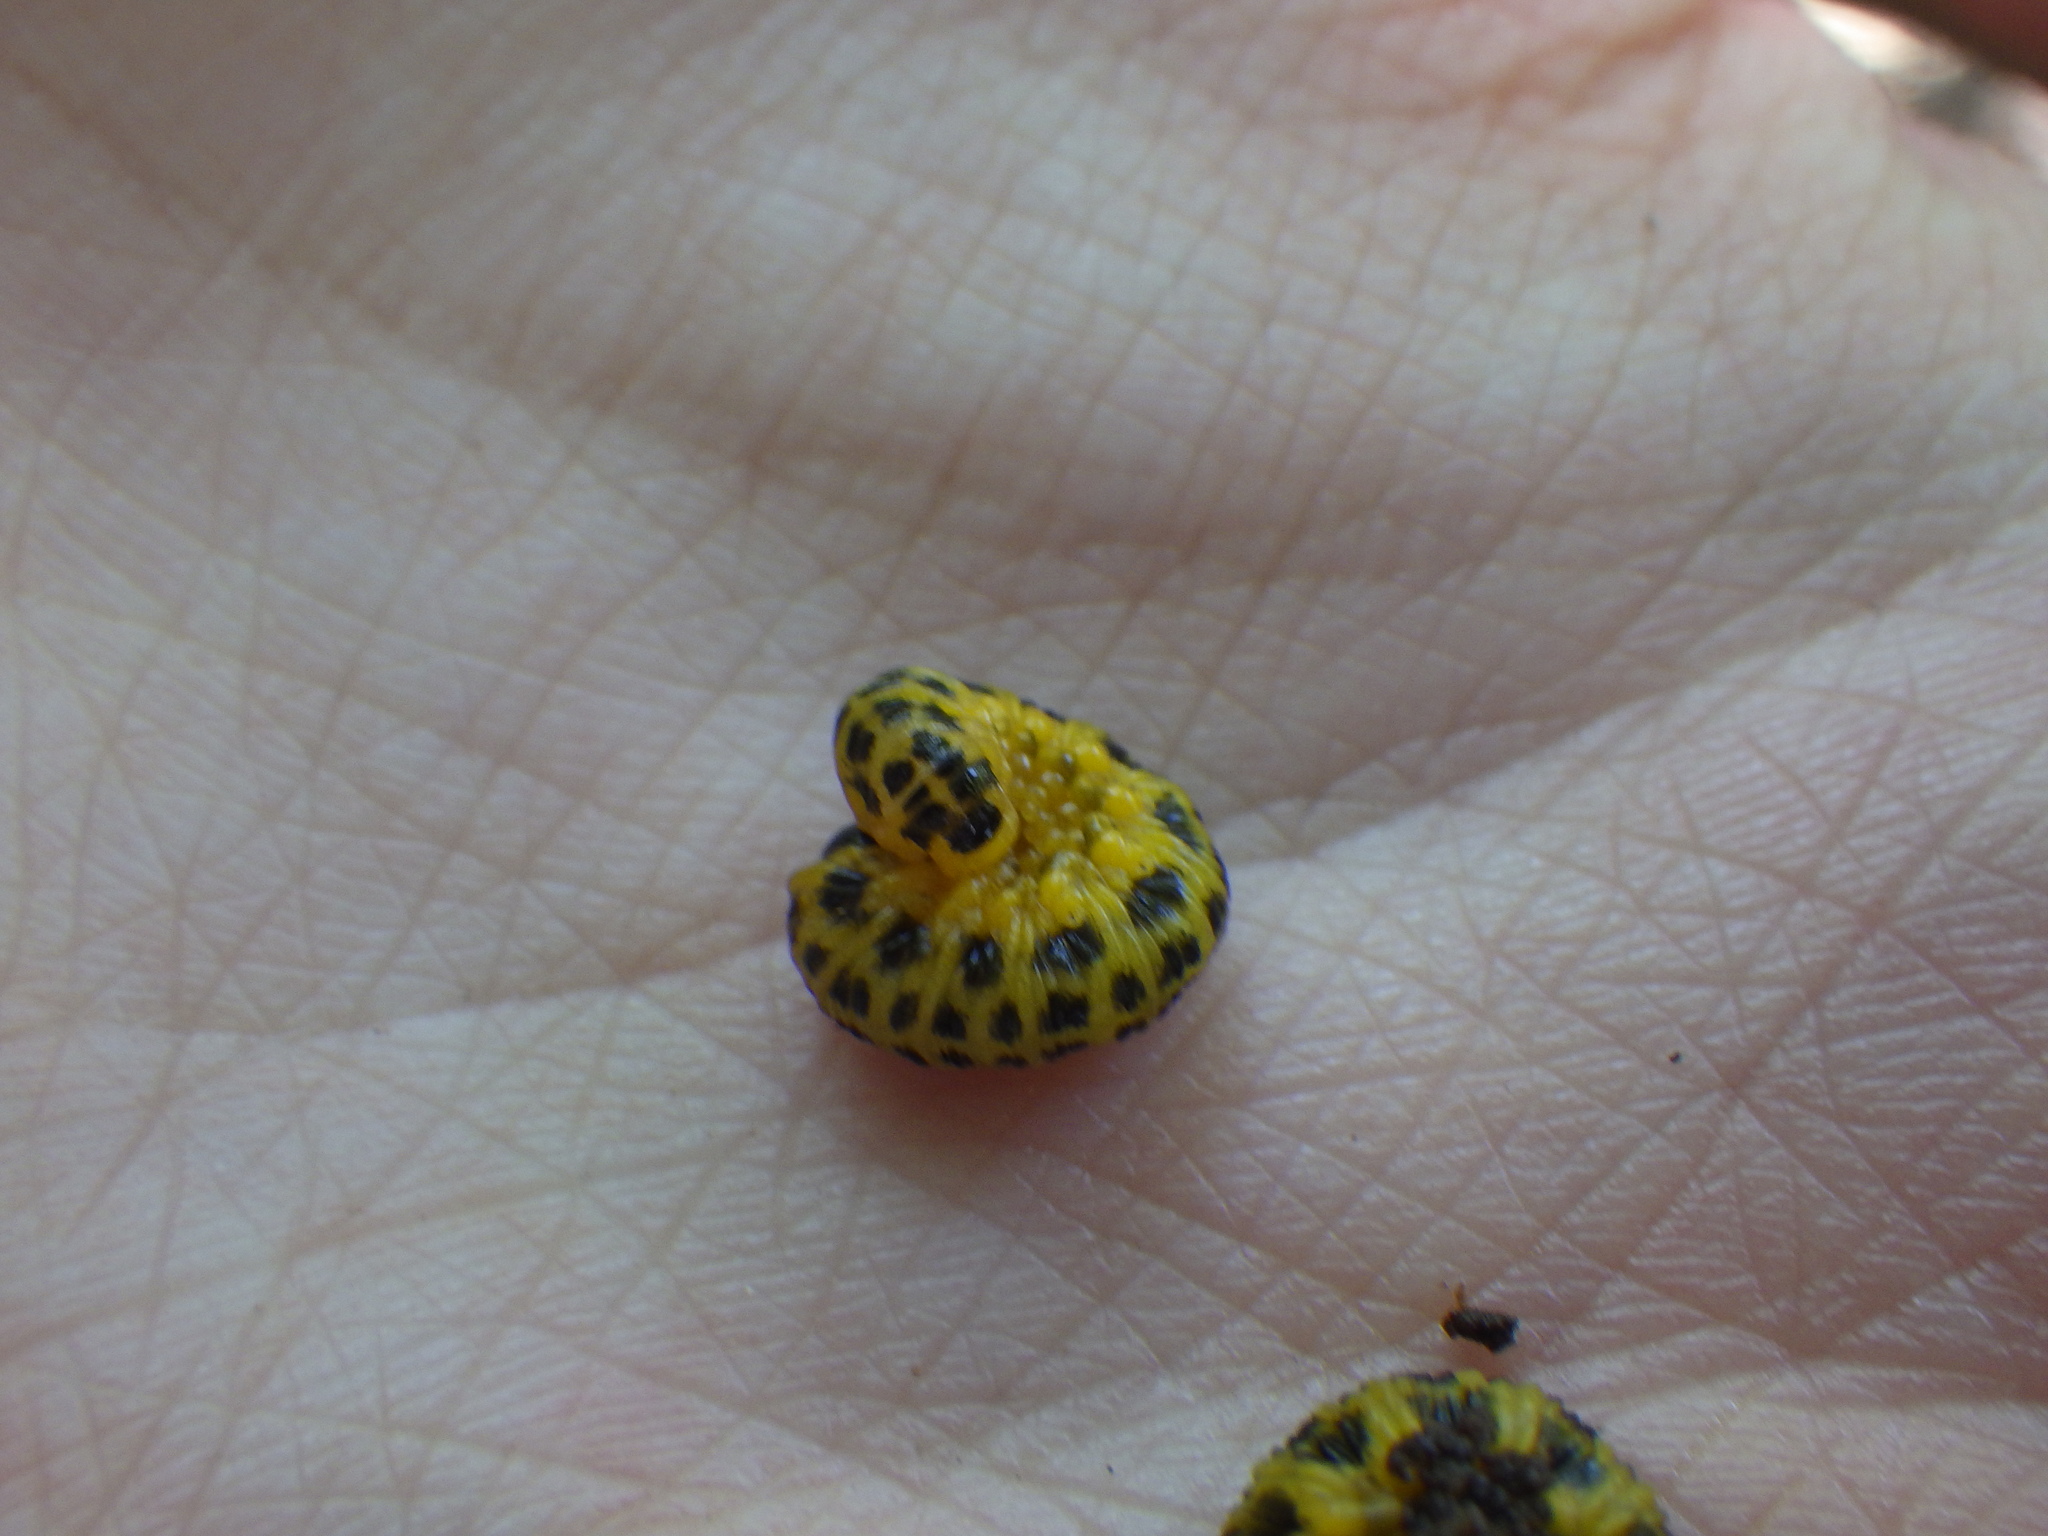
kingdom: Animalia
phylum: Arthropoda
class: Insecta
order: Hymenoptera
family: Tenthredinidae
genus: Macremphytus
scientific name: Macremphytus testaceus
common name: Dogwood sawfly
